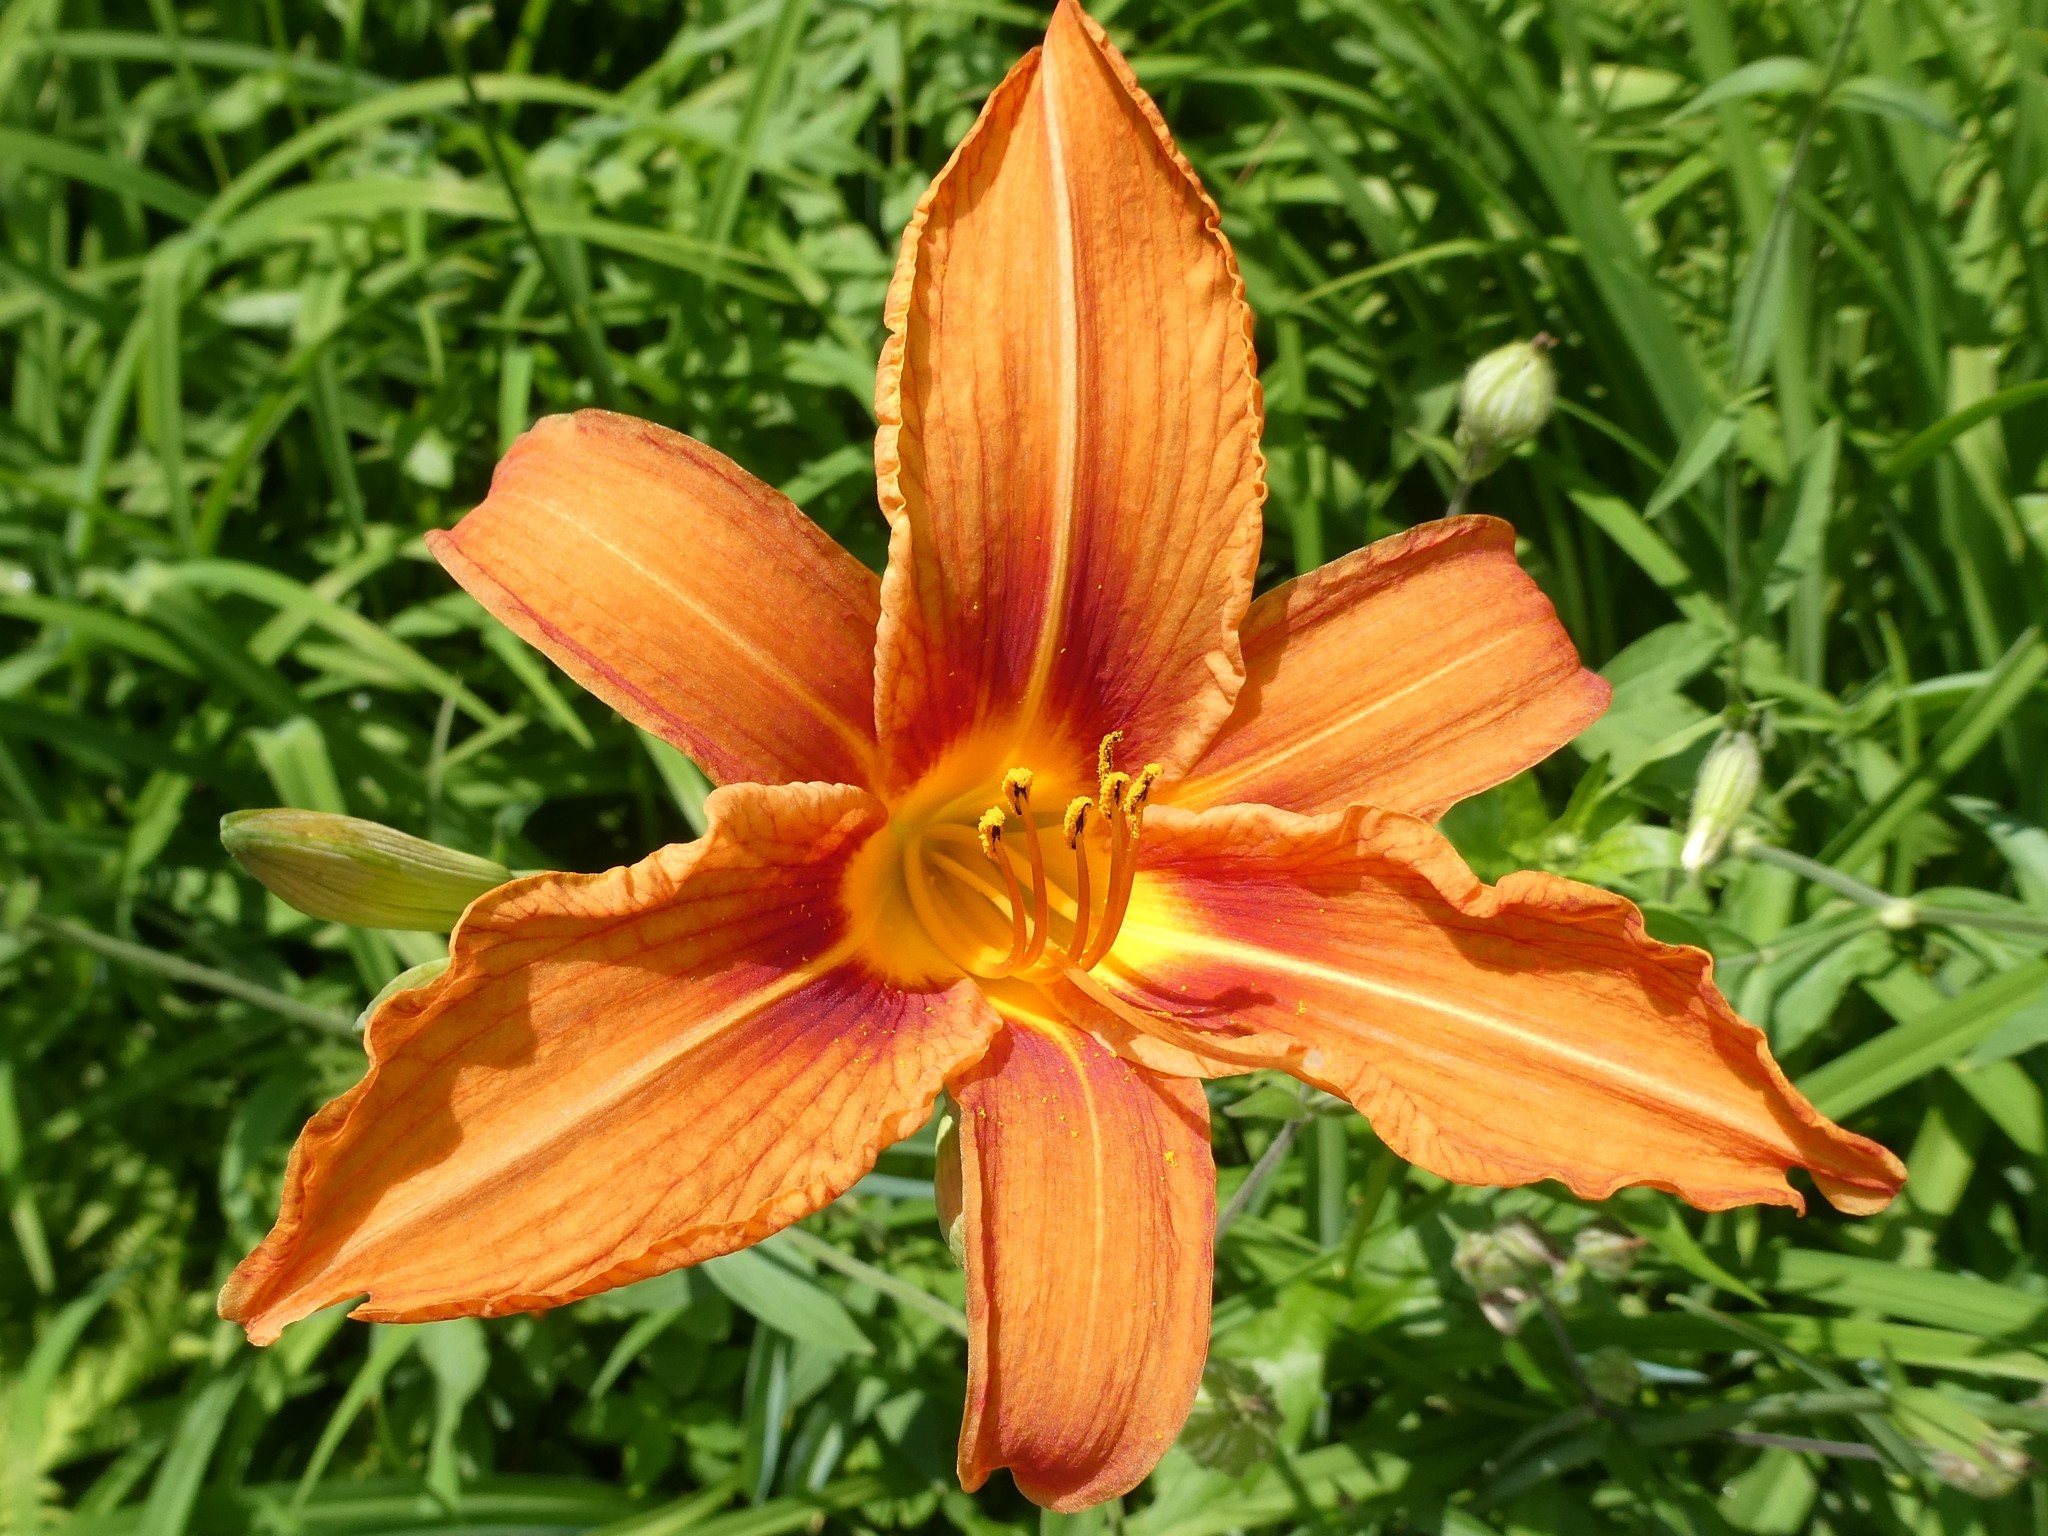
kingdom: Plantae
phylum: Tracheophyta
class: Liliopsida
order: Asparagales
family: Asphodelaceae
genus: Hemerocallis
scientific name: Hemerocallis fulva
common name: Orange day-lily
